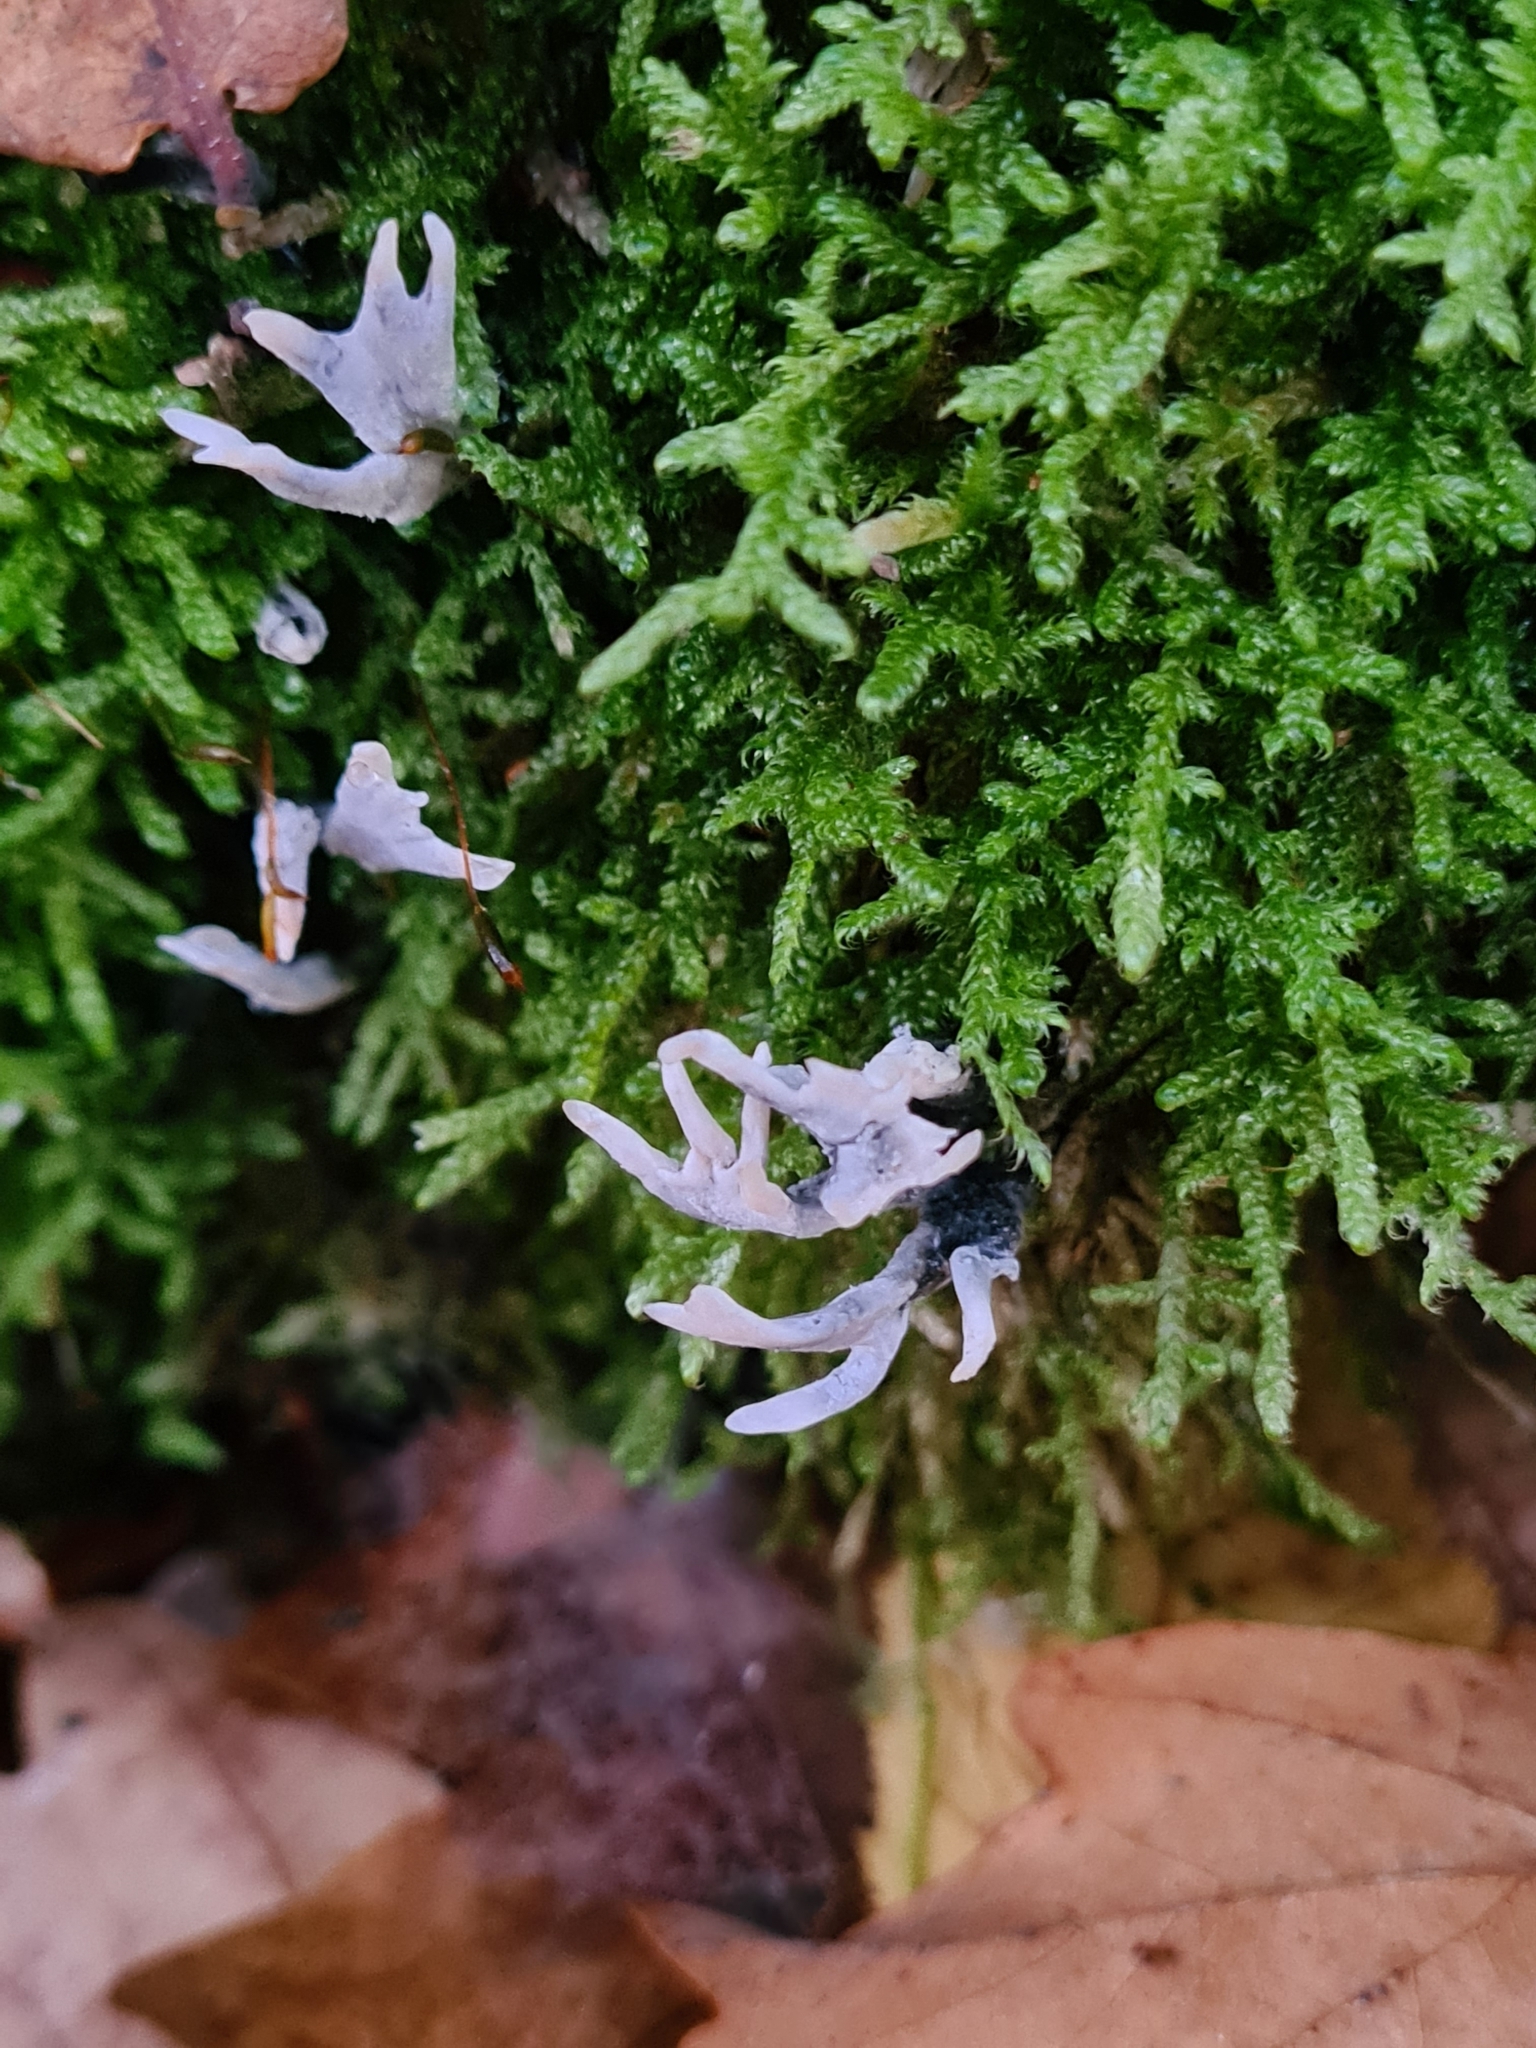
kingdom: Fungi
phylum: Ascomycota
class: Sordariomycetes
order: Xylariales
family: Xylariaceae
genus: Xylaria
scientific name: Xylaria hypoxylon
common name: Candle-snuff fungus
